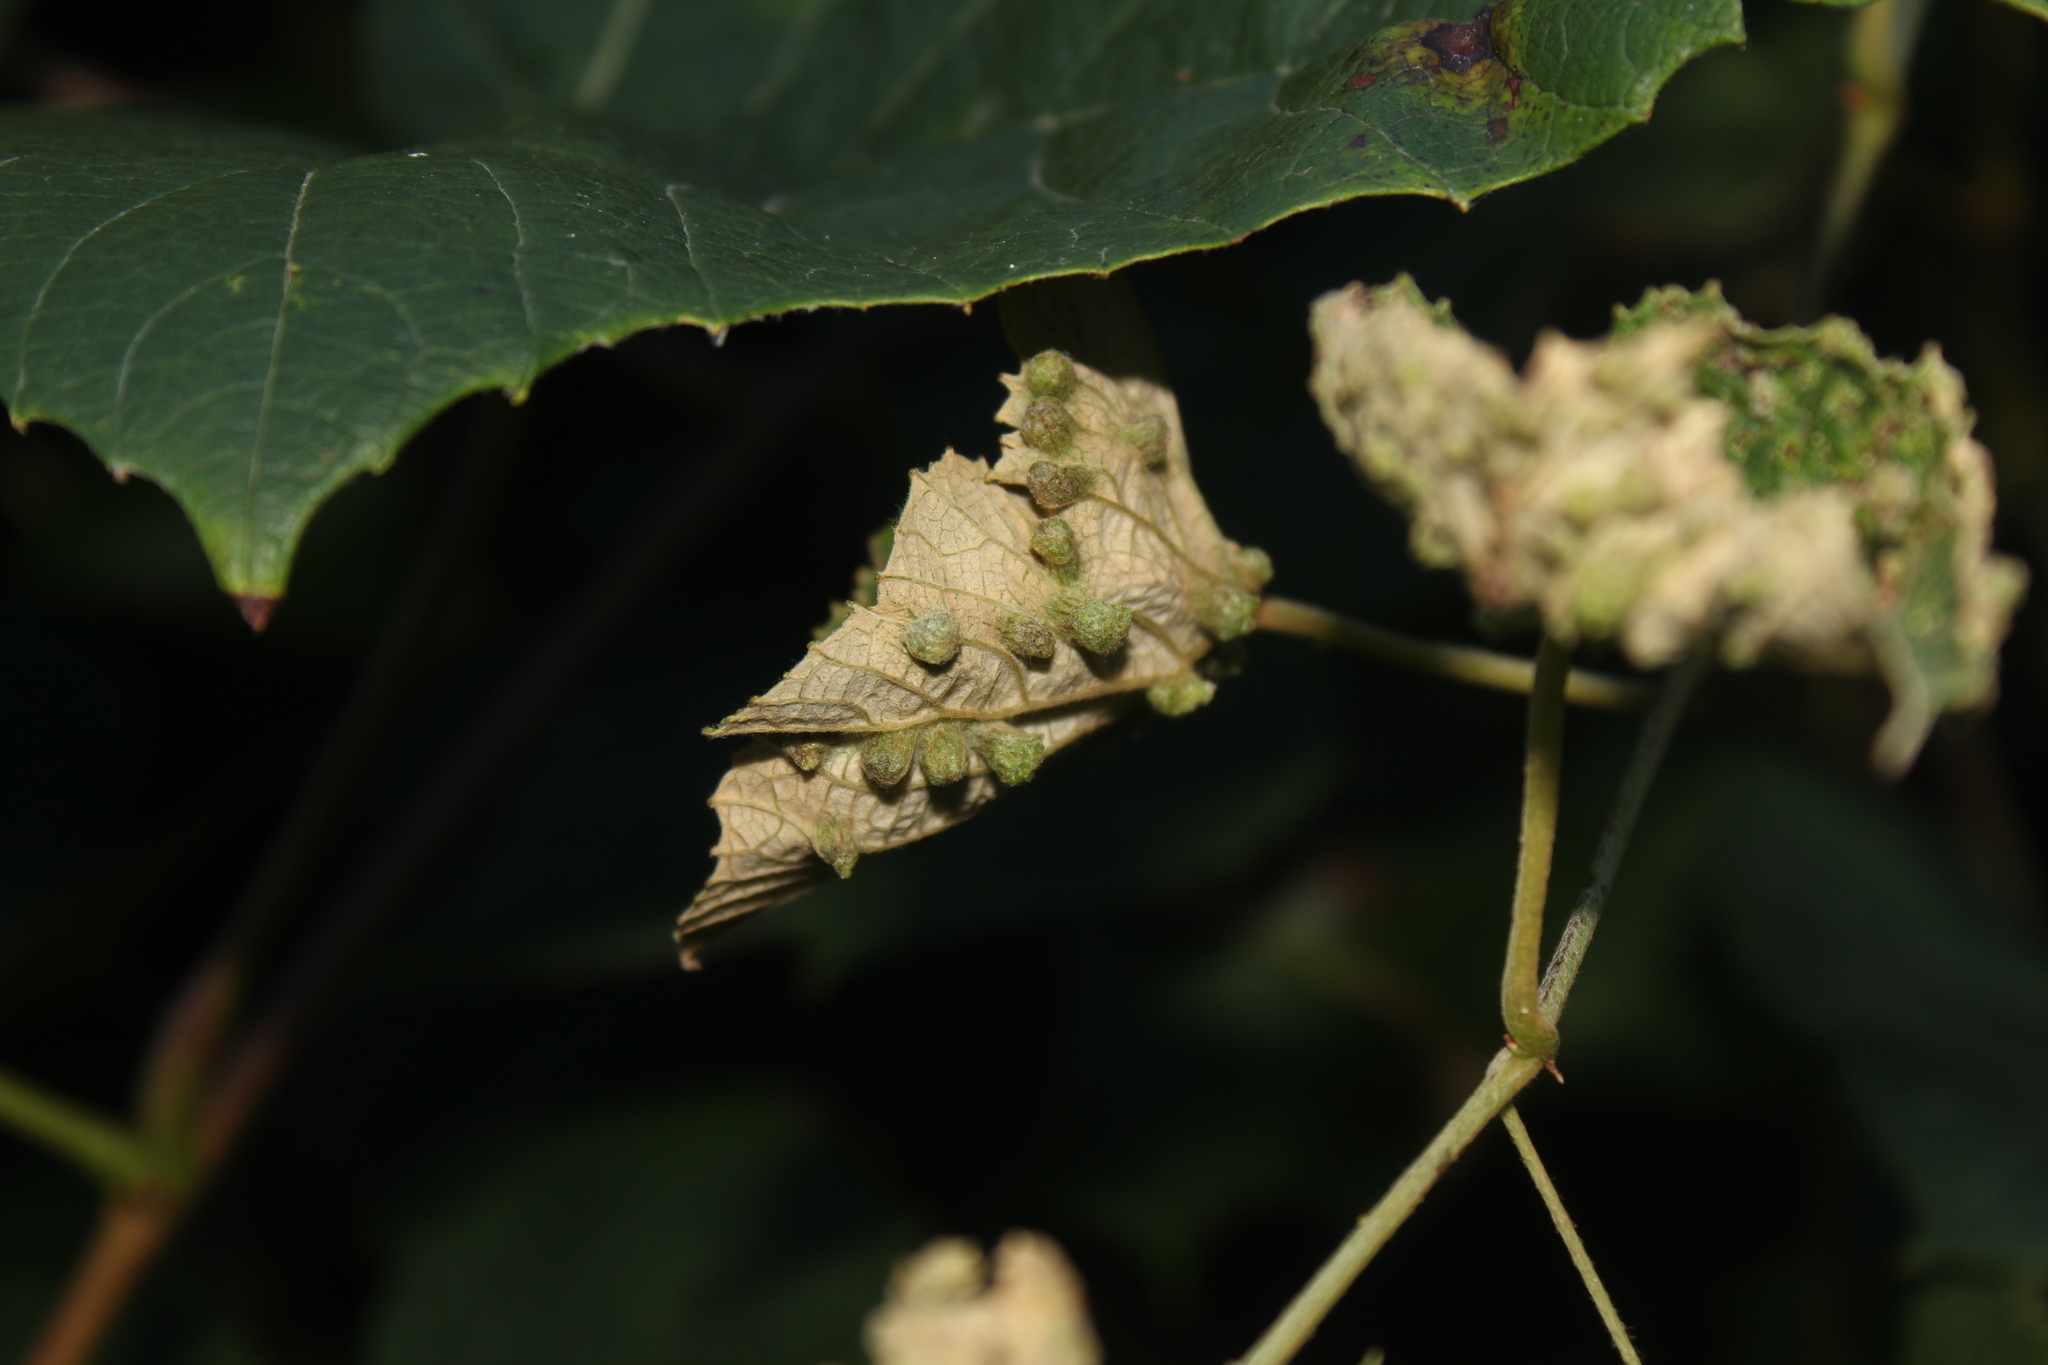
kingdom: Animalia
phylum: Arthropoda
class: Insecta
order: Hemiptera
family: Phylloxeridae
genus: Daktulosphaira
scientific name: Daktulosphaira vitifoliae
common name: Grape phylloxera
